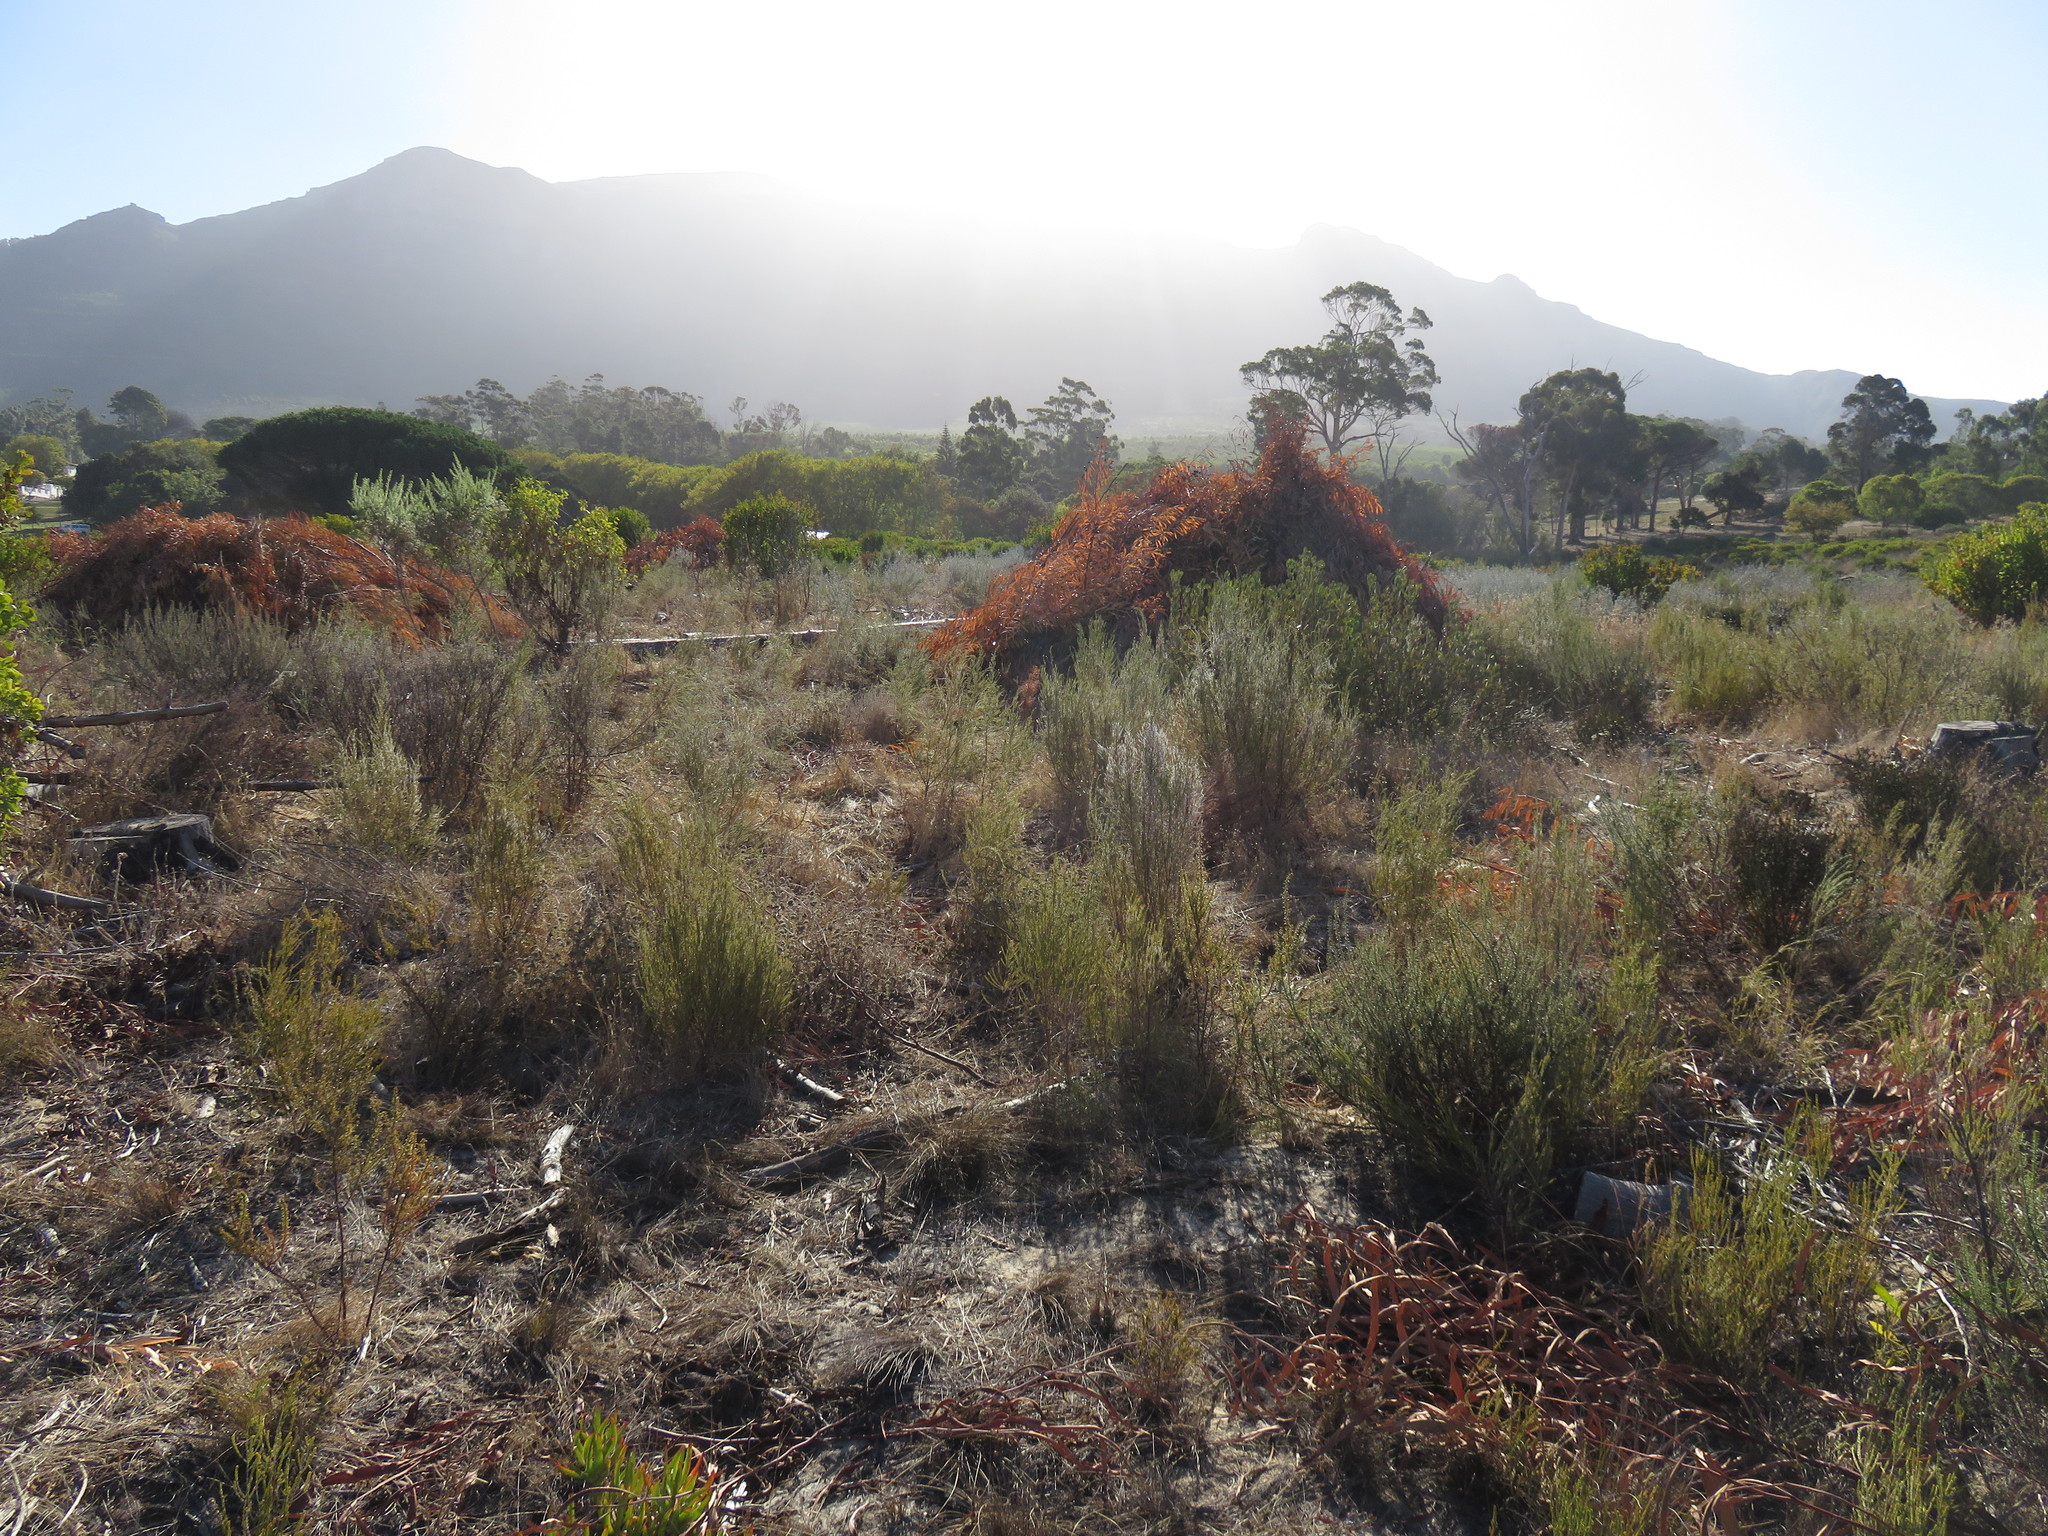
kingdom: Plantae
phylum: Tracheophyta
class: Magnoliopsida
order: Fabales
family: Fabaceae
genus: Acacia
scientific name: Acacia longifolia
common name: Sydney golden wattle
